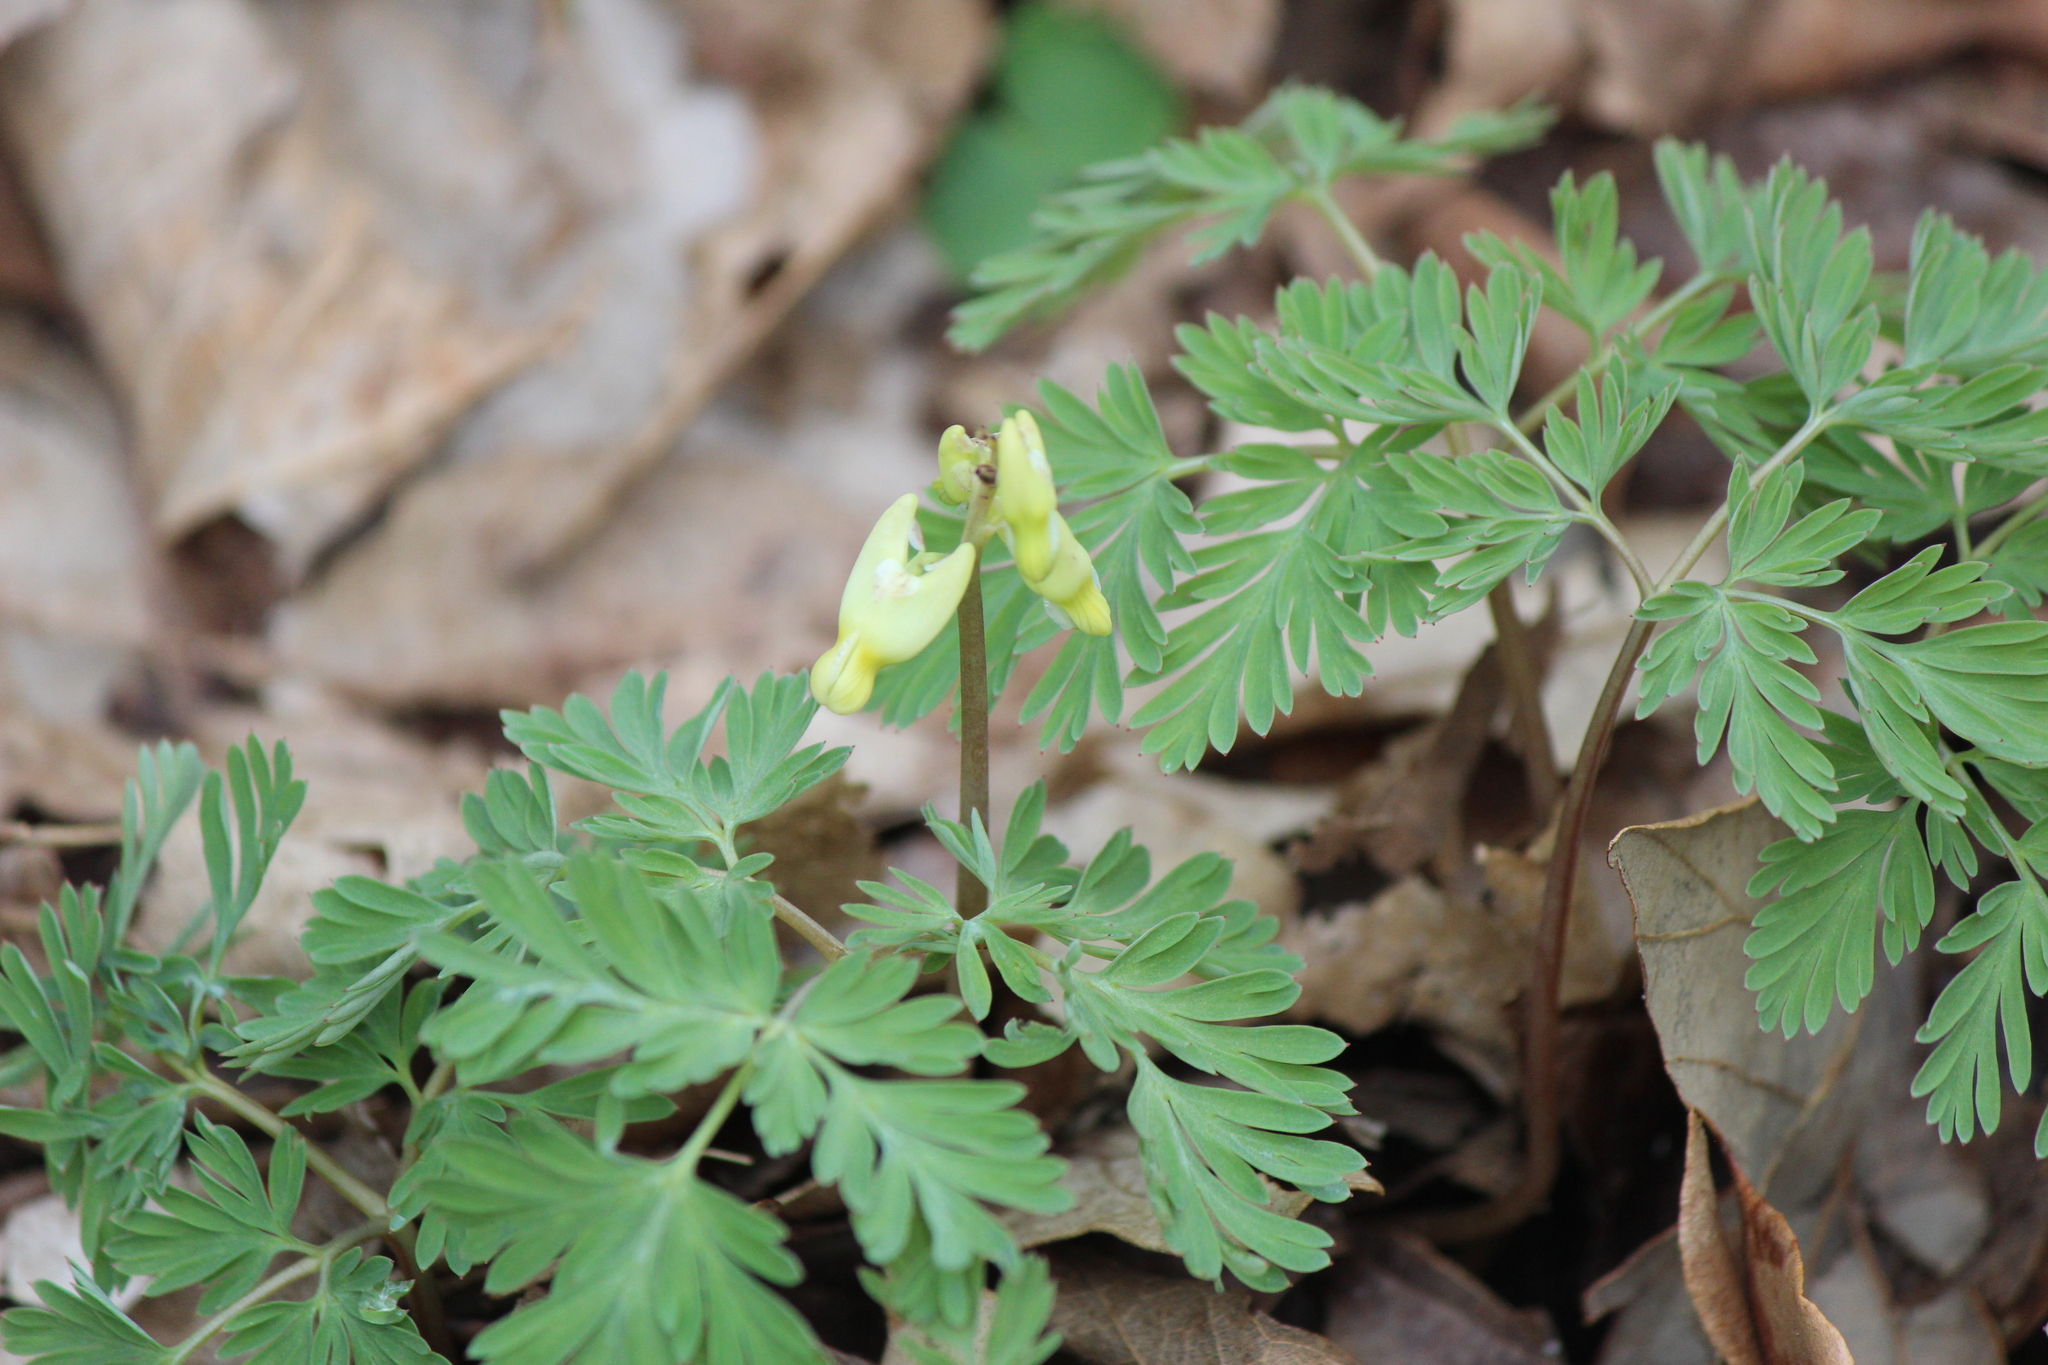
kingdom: Plantae
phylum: Tracheophyta
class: Magnoliopsida
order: Ranunculales
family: Papaveraceae
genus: Dicentra
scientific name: Dicentra cucullaria
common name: Dutchman's breeches
